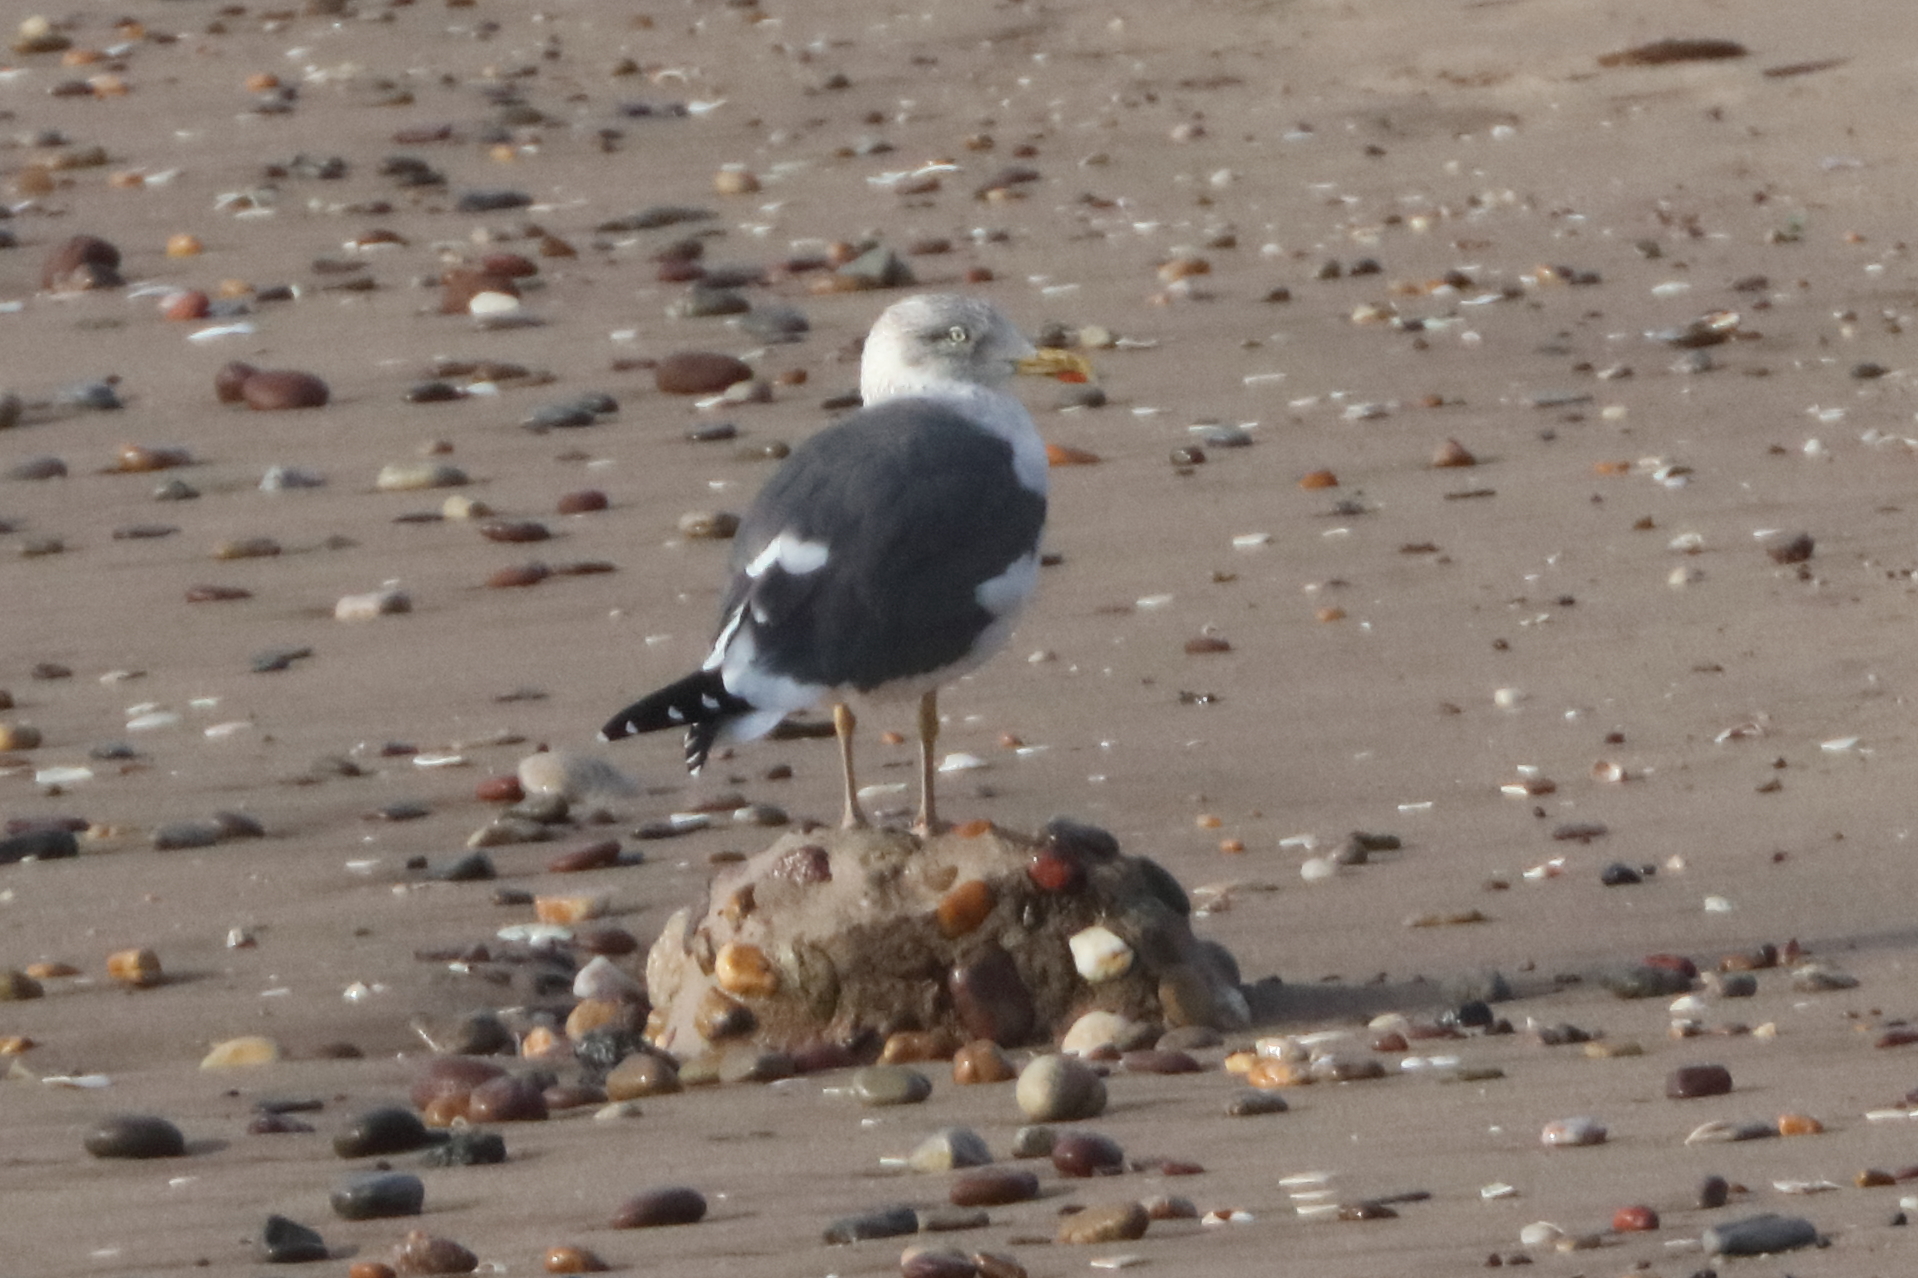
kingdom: Animalia
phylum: Chordata
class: Aves
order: Charadriiformes
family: Laridae
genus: Larus
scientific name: Larus fuscus
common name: Lesser black-backed gull
